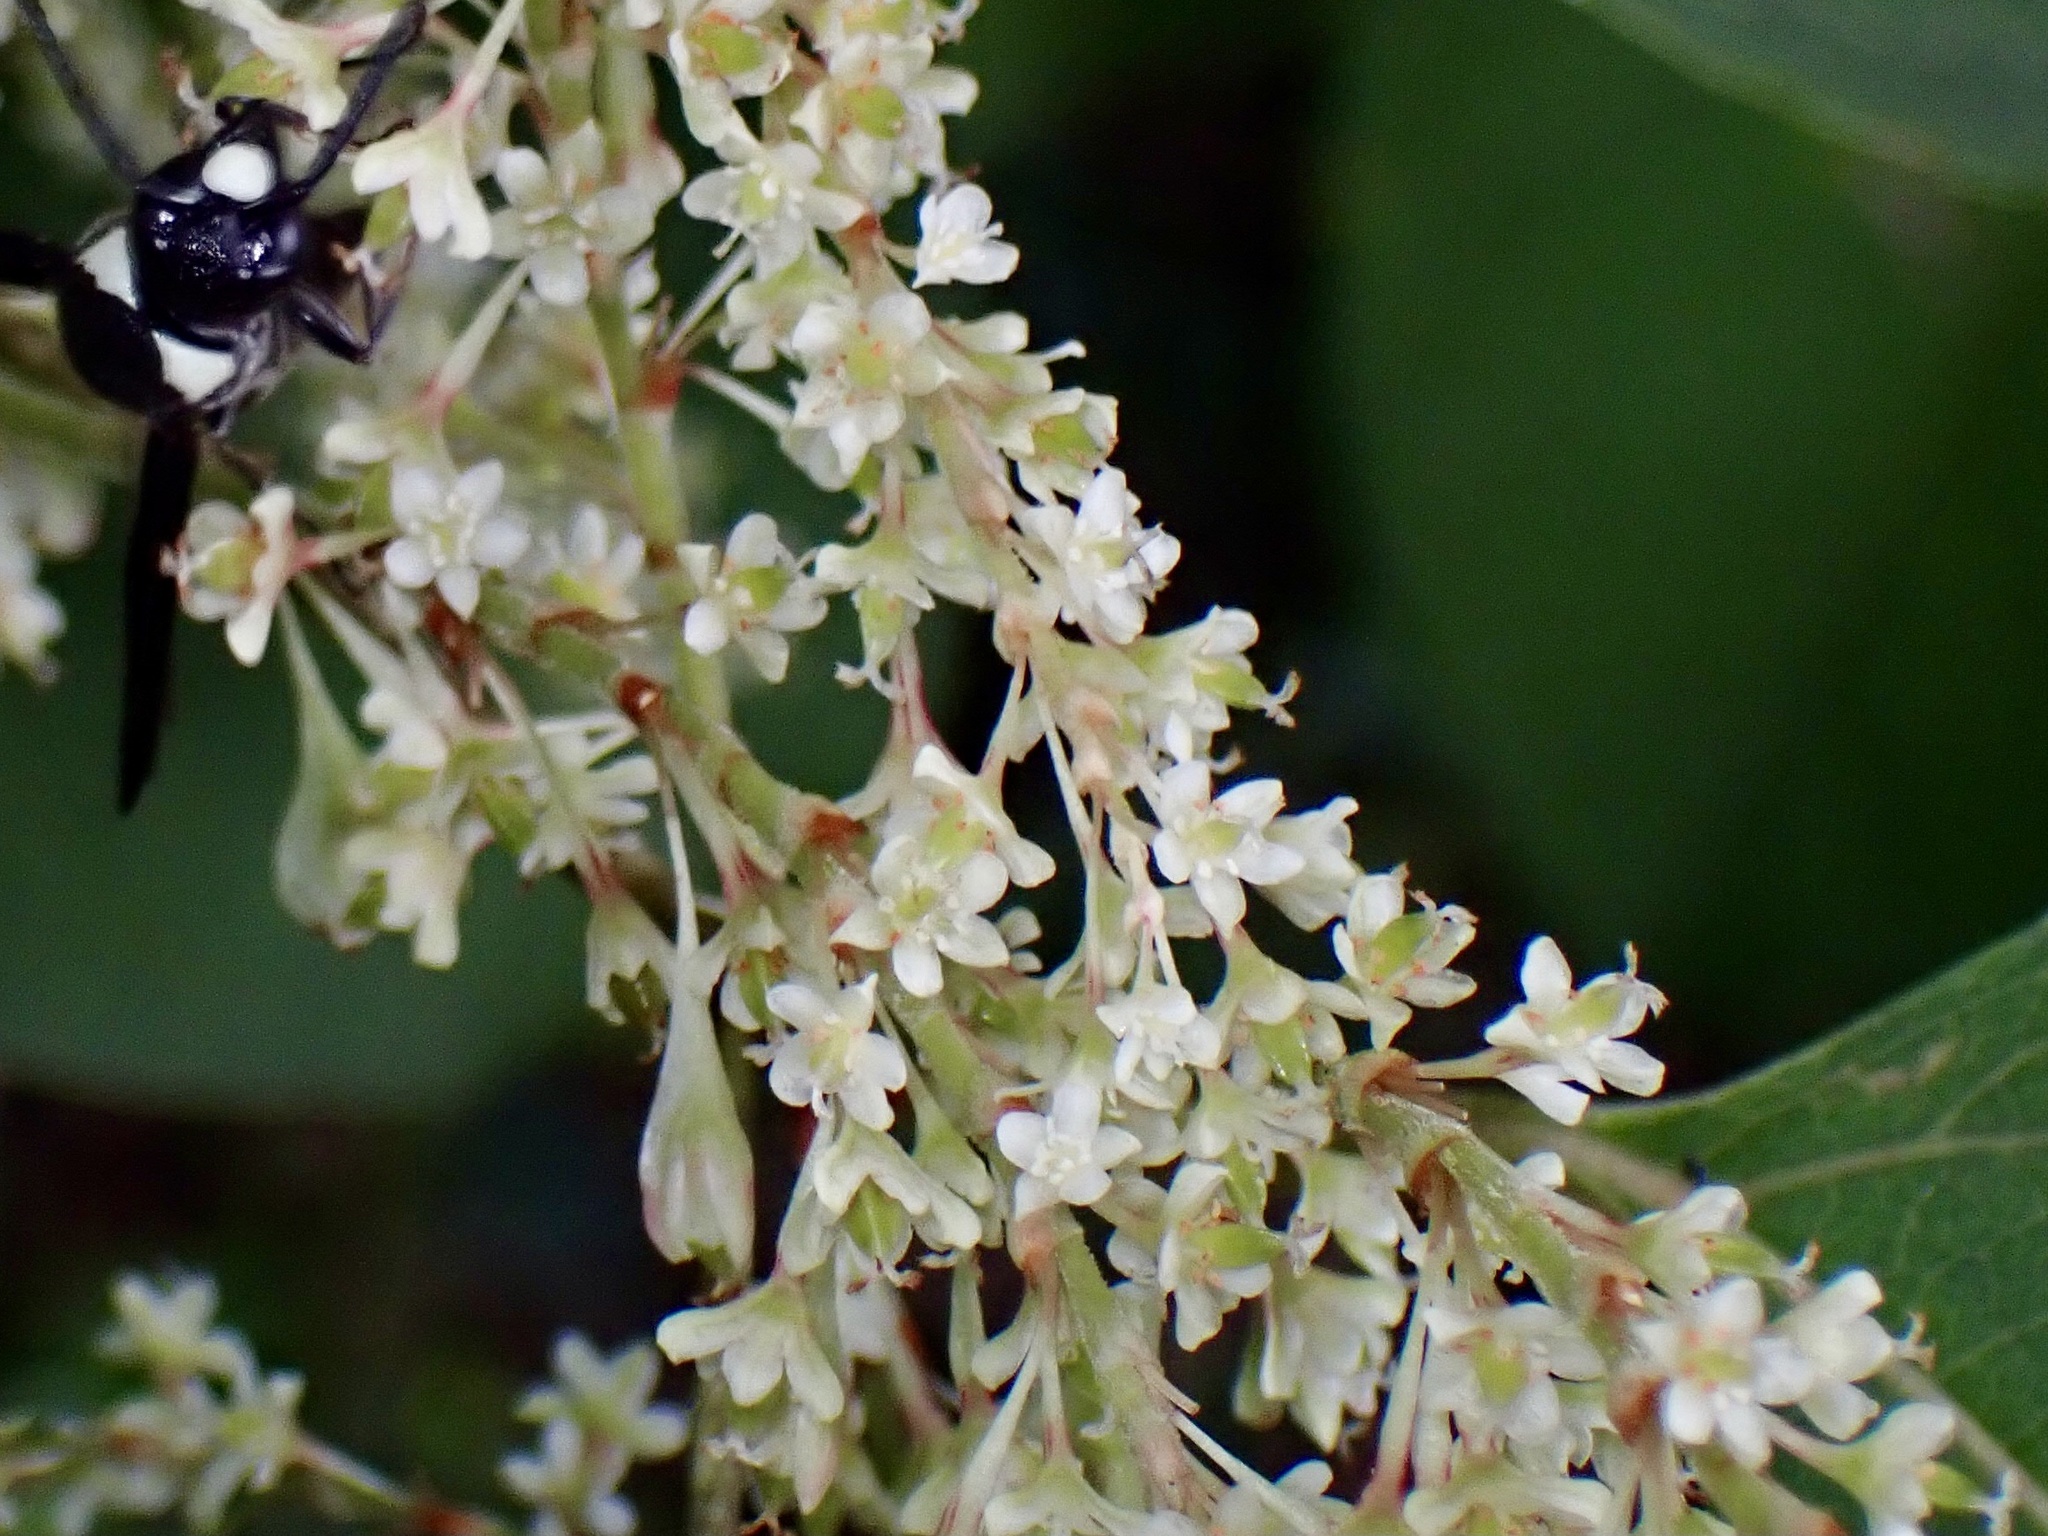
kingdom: Plantae
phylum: Tracheophyta
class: Magnoliopsida
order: Caryophyllales
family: Polygonaceae
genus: Reynoutria
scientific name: Reynoutria japonica
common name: Japanese knotweed
